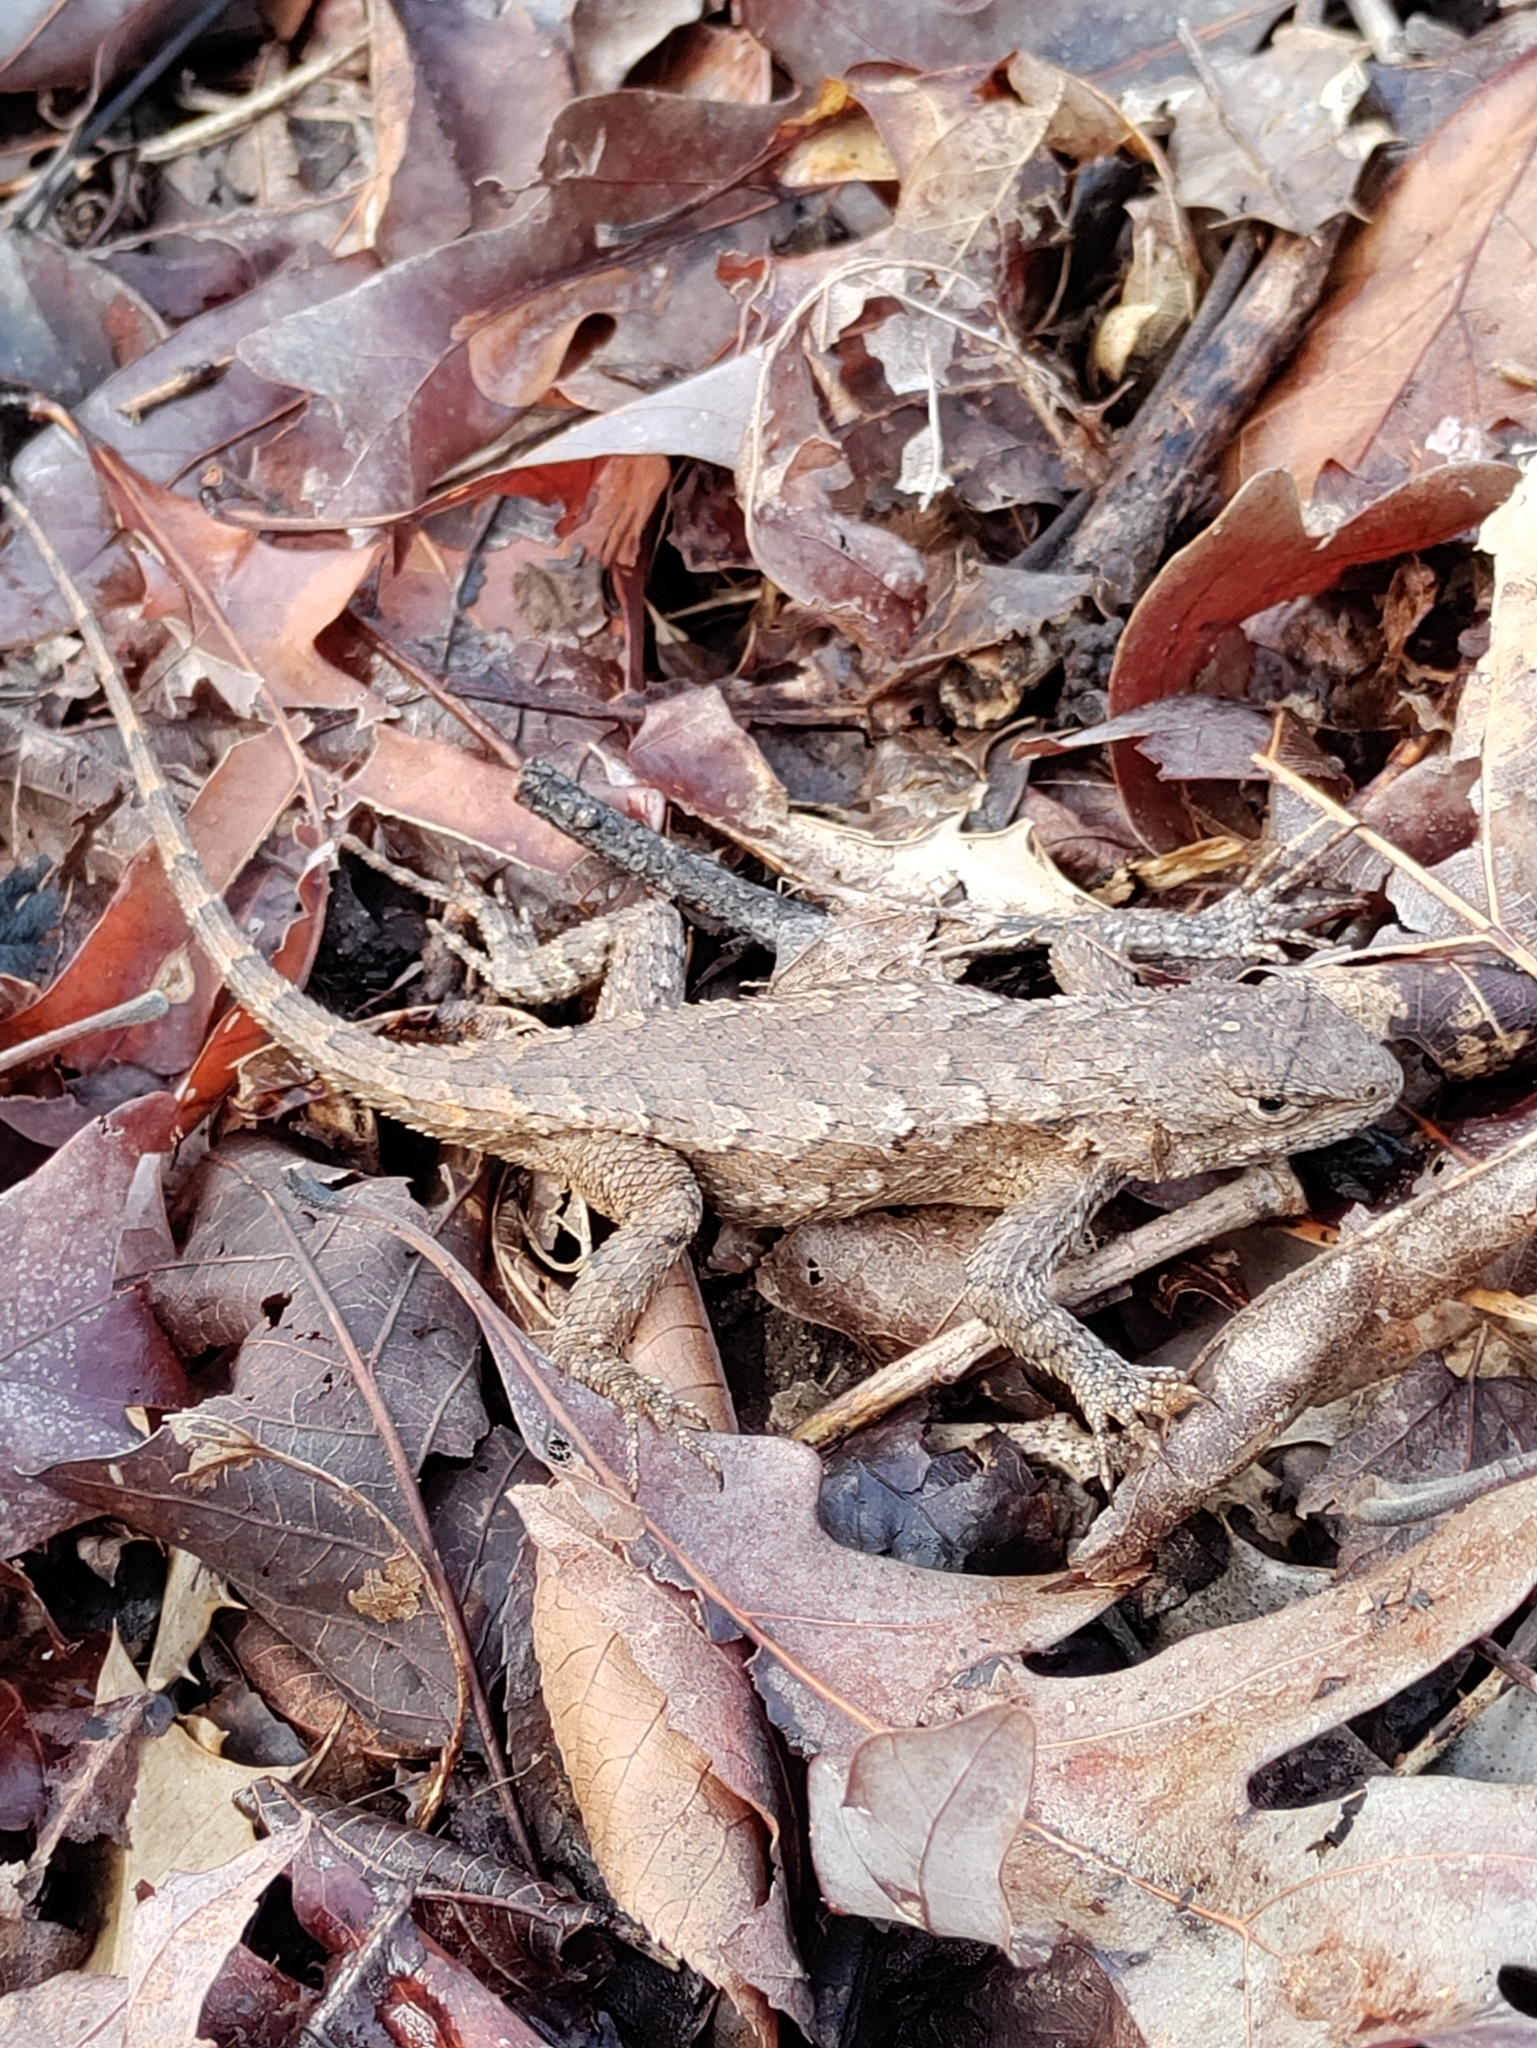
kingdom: Animalia
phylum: Chordata
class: Squamata
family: Phrynosomatidae
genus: Sceloporus
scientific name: Sceloporus undulatus
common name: Eastern fence lizard
